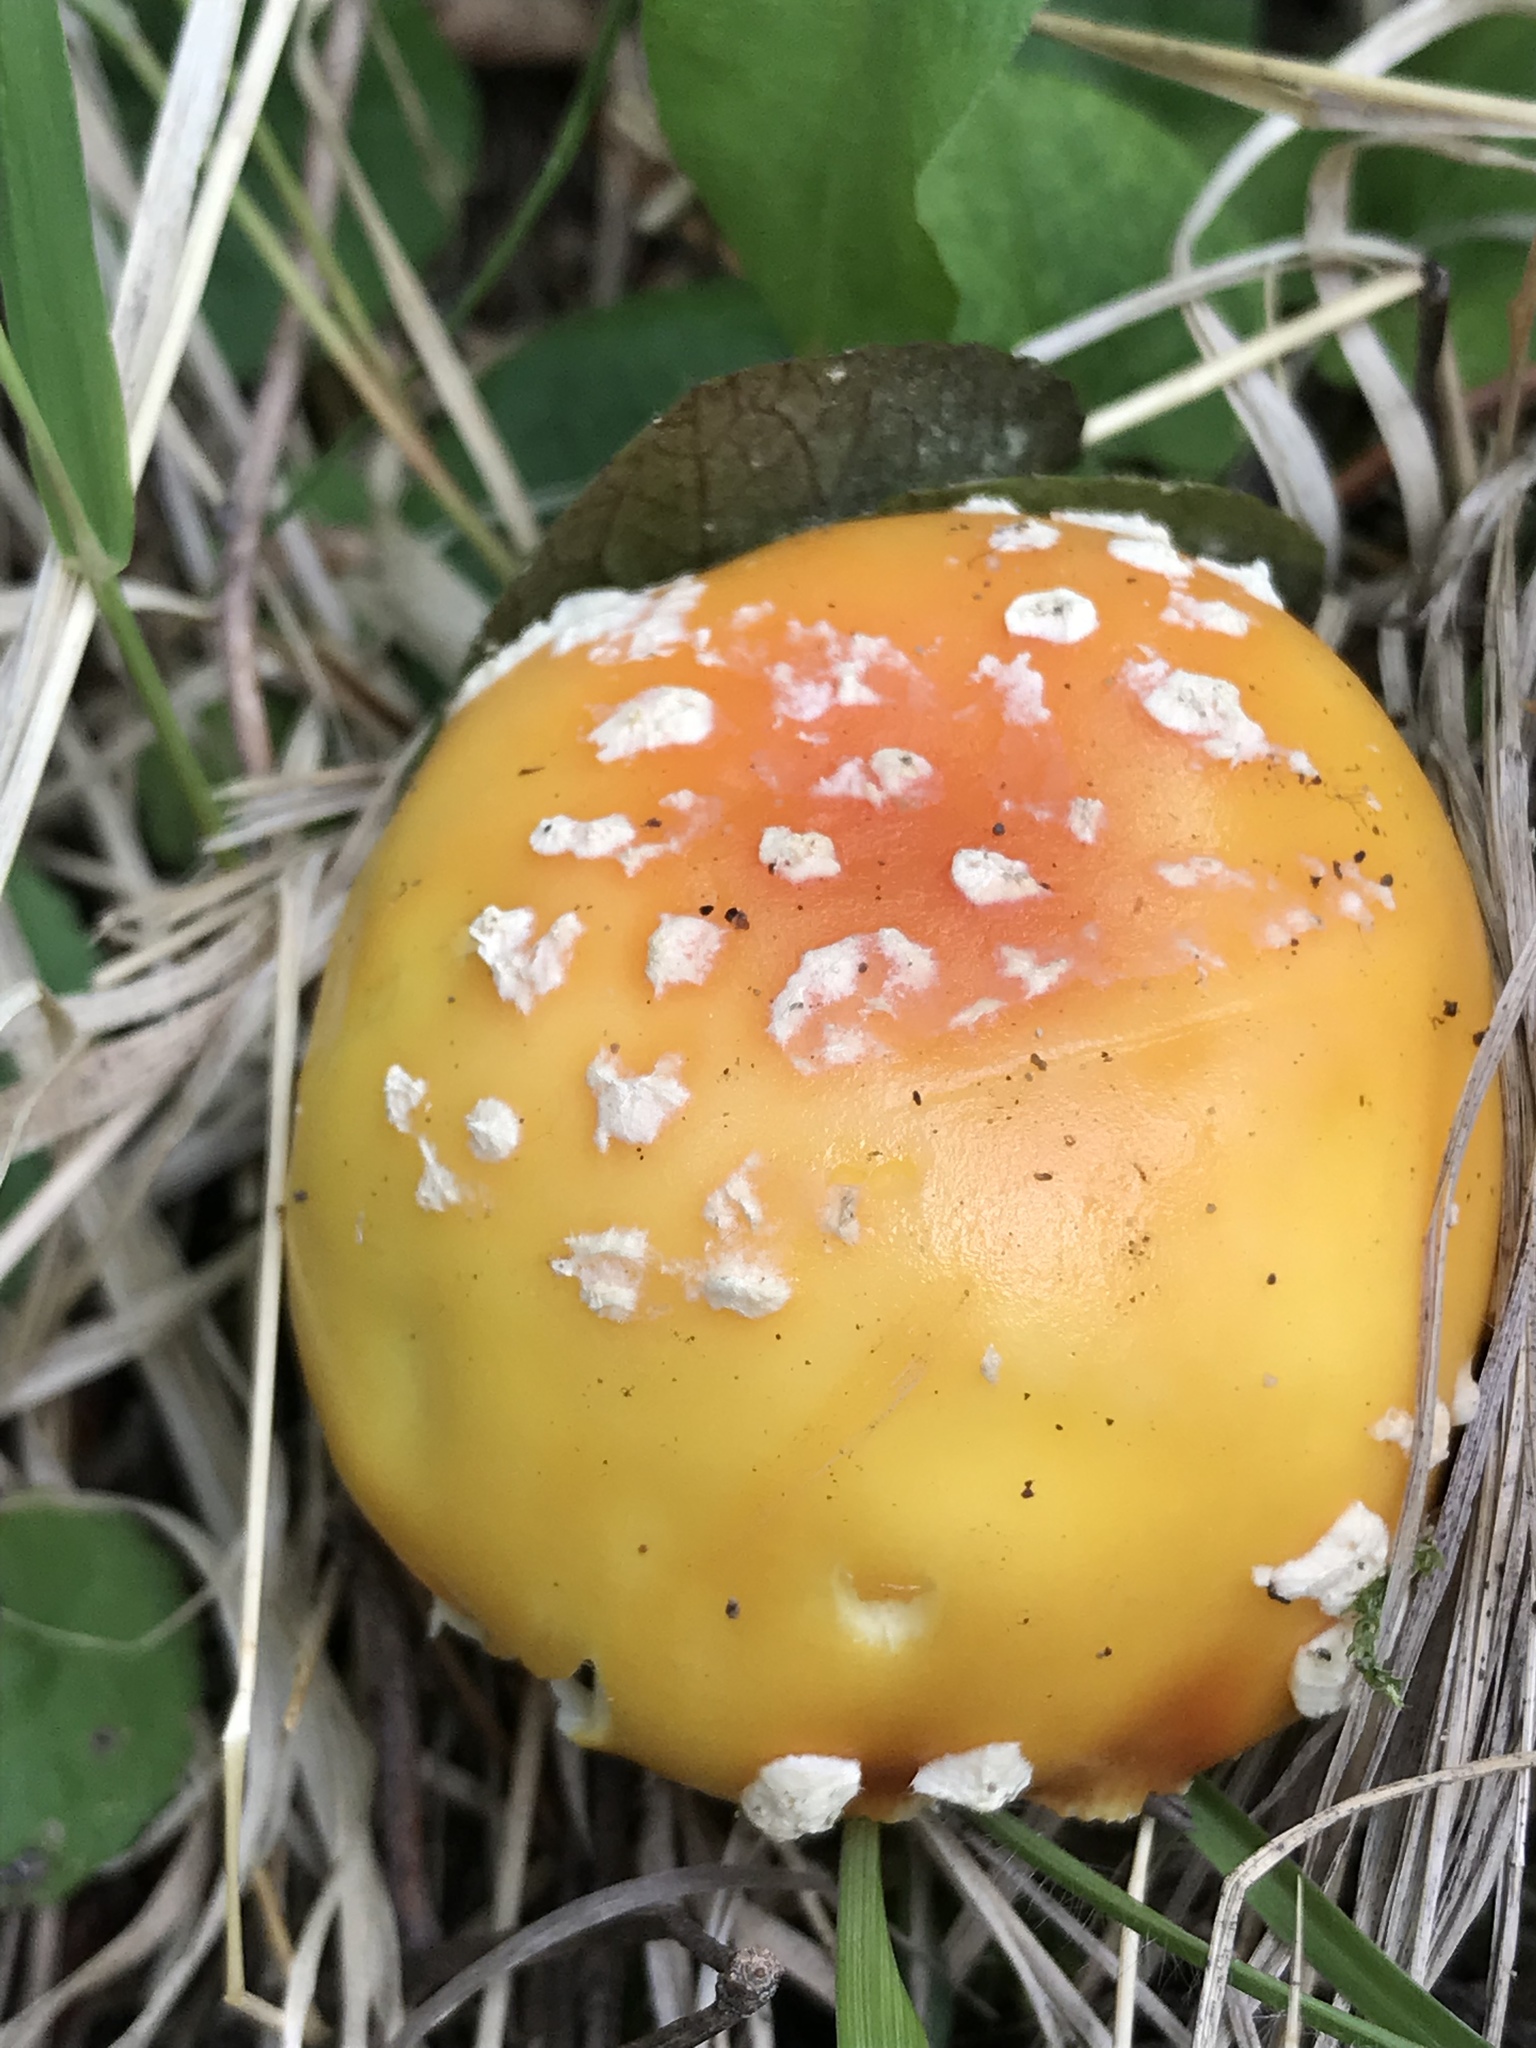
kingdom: Fungi
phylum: Basidiomycota
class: Agaricomycetes
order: Agaricales
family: Amanitaceae
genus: Amanita
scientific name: Amanita muscaria
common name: Fly agaric
